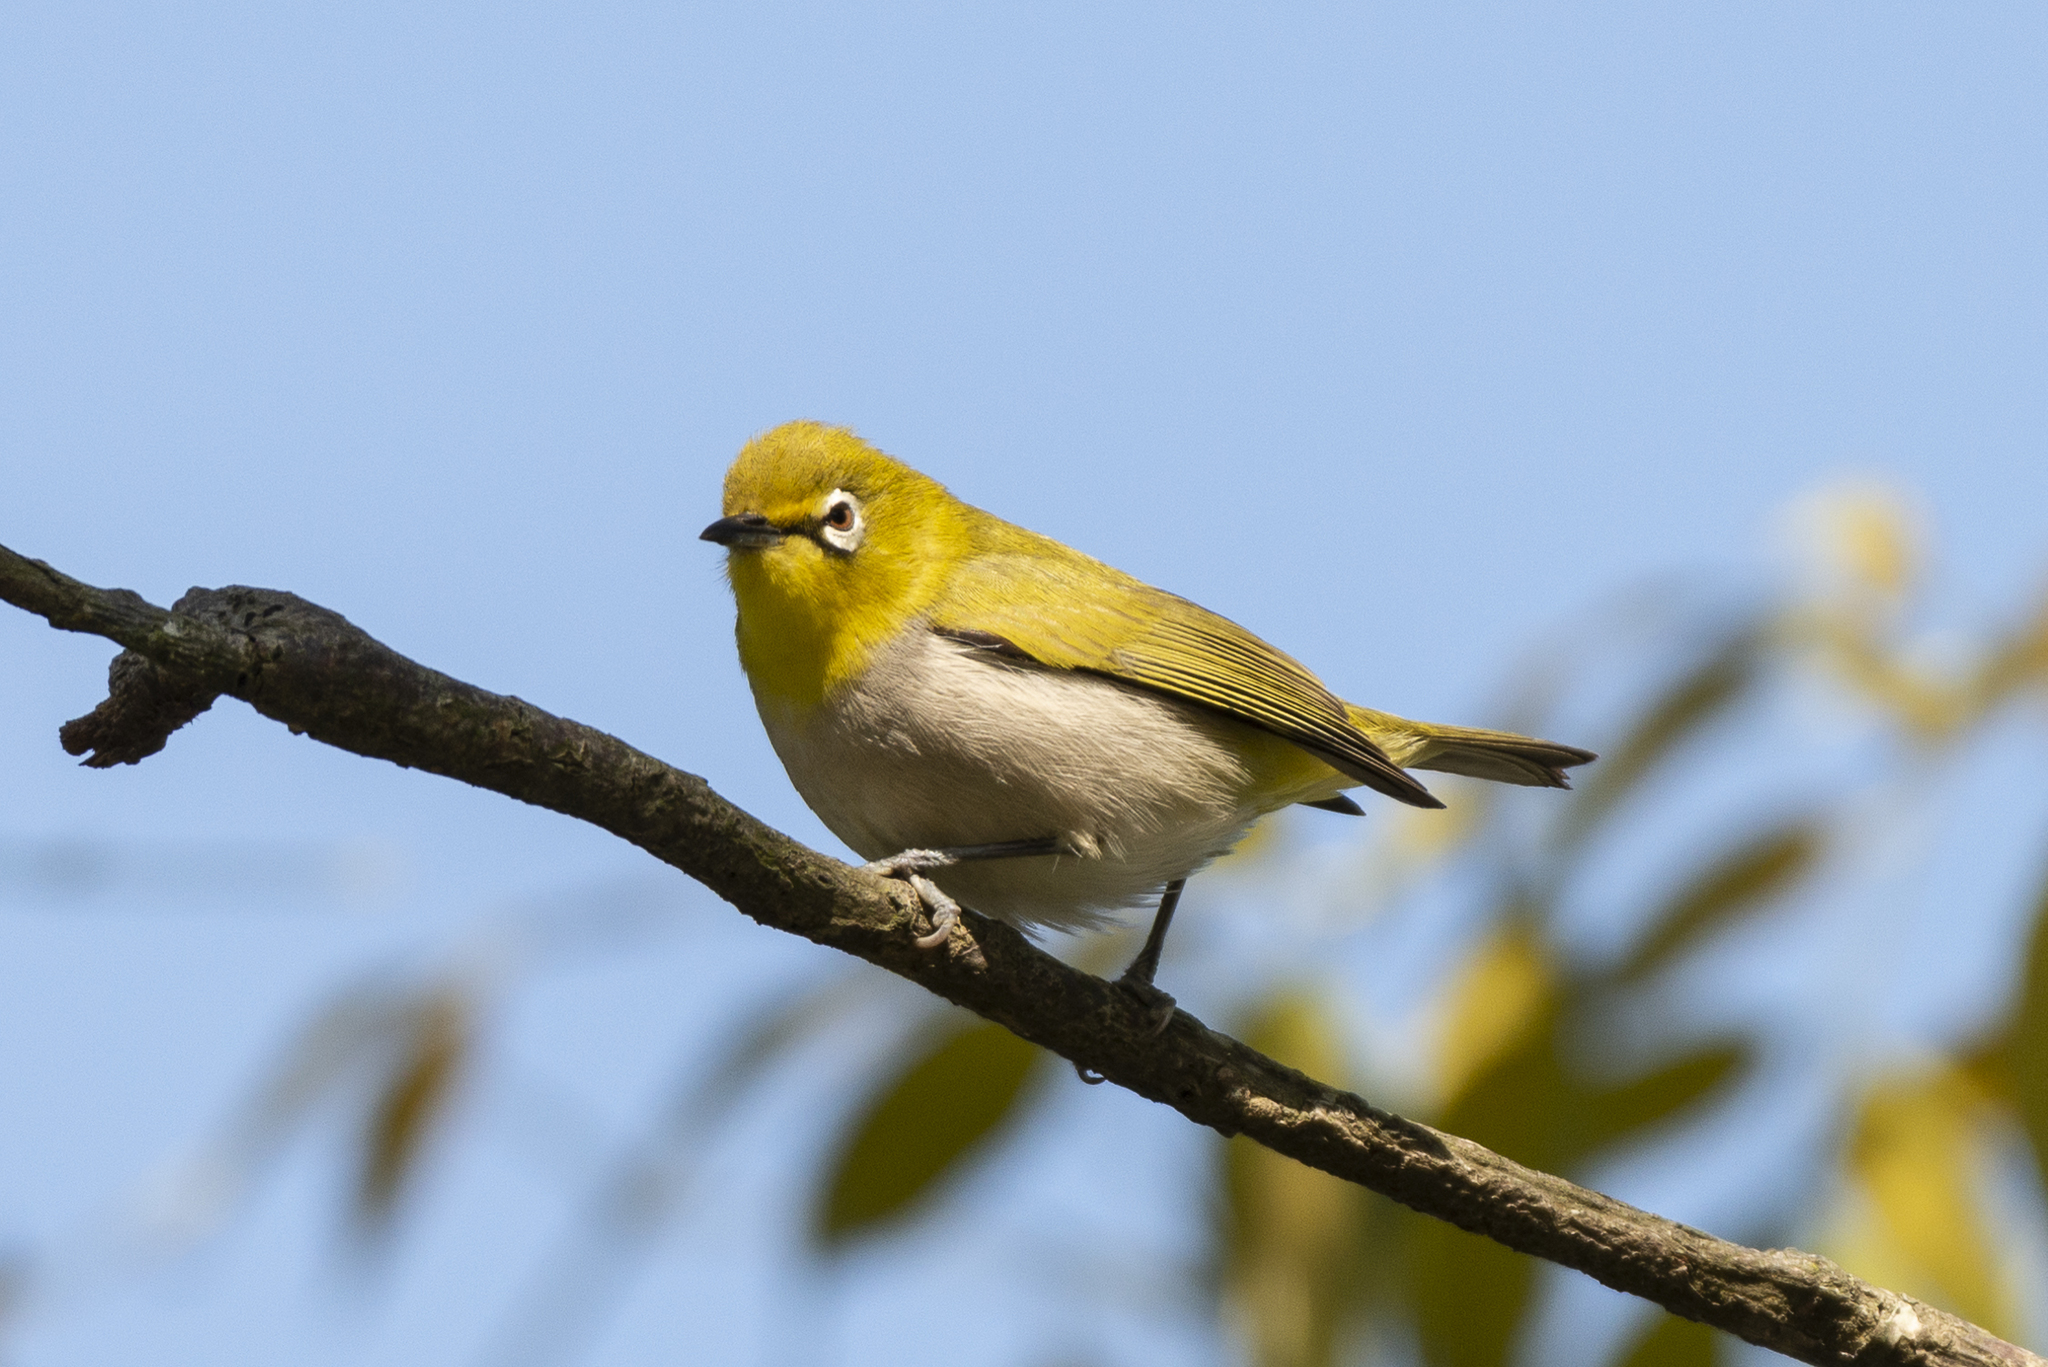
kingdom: Animalia
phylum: Chordata
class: Aves
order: Passeriformes
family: Zosteropidae
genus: Zosterops
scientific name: Zosterops simplex
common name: Swinhoe's white-eye
